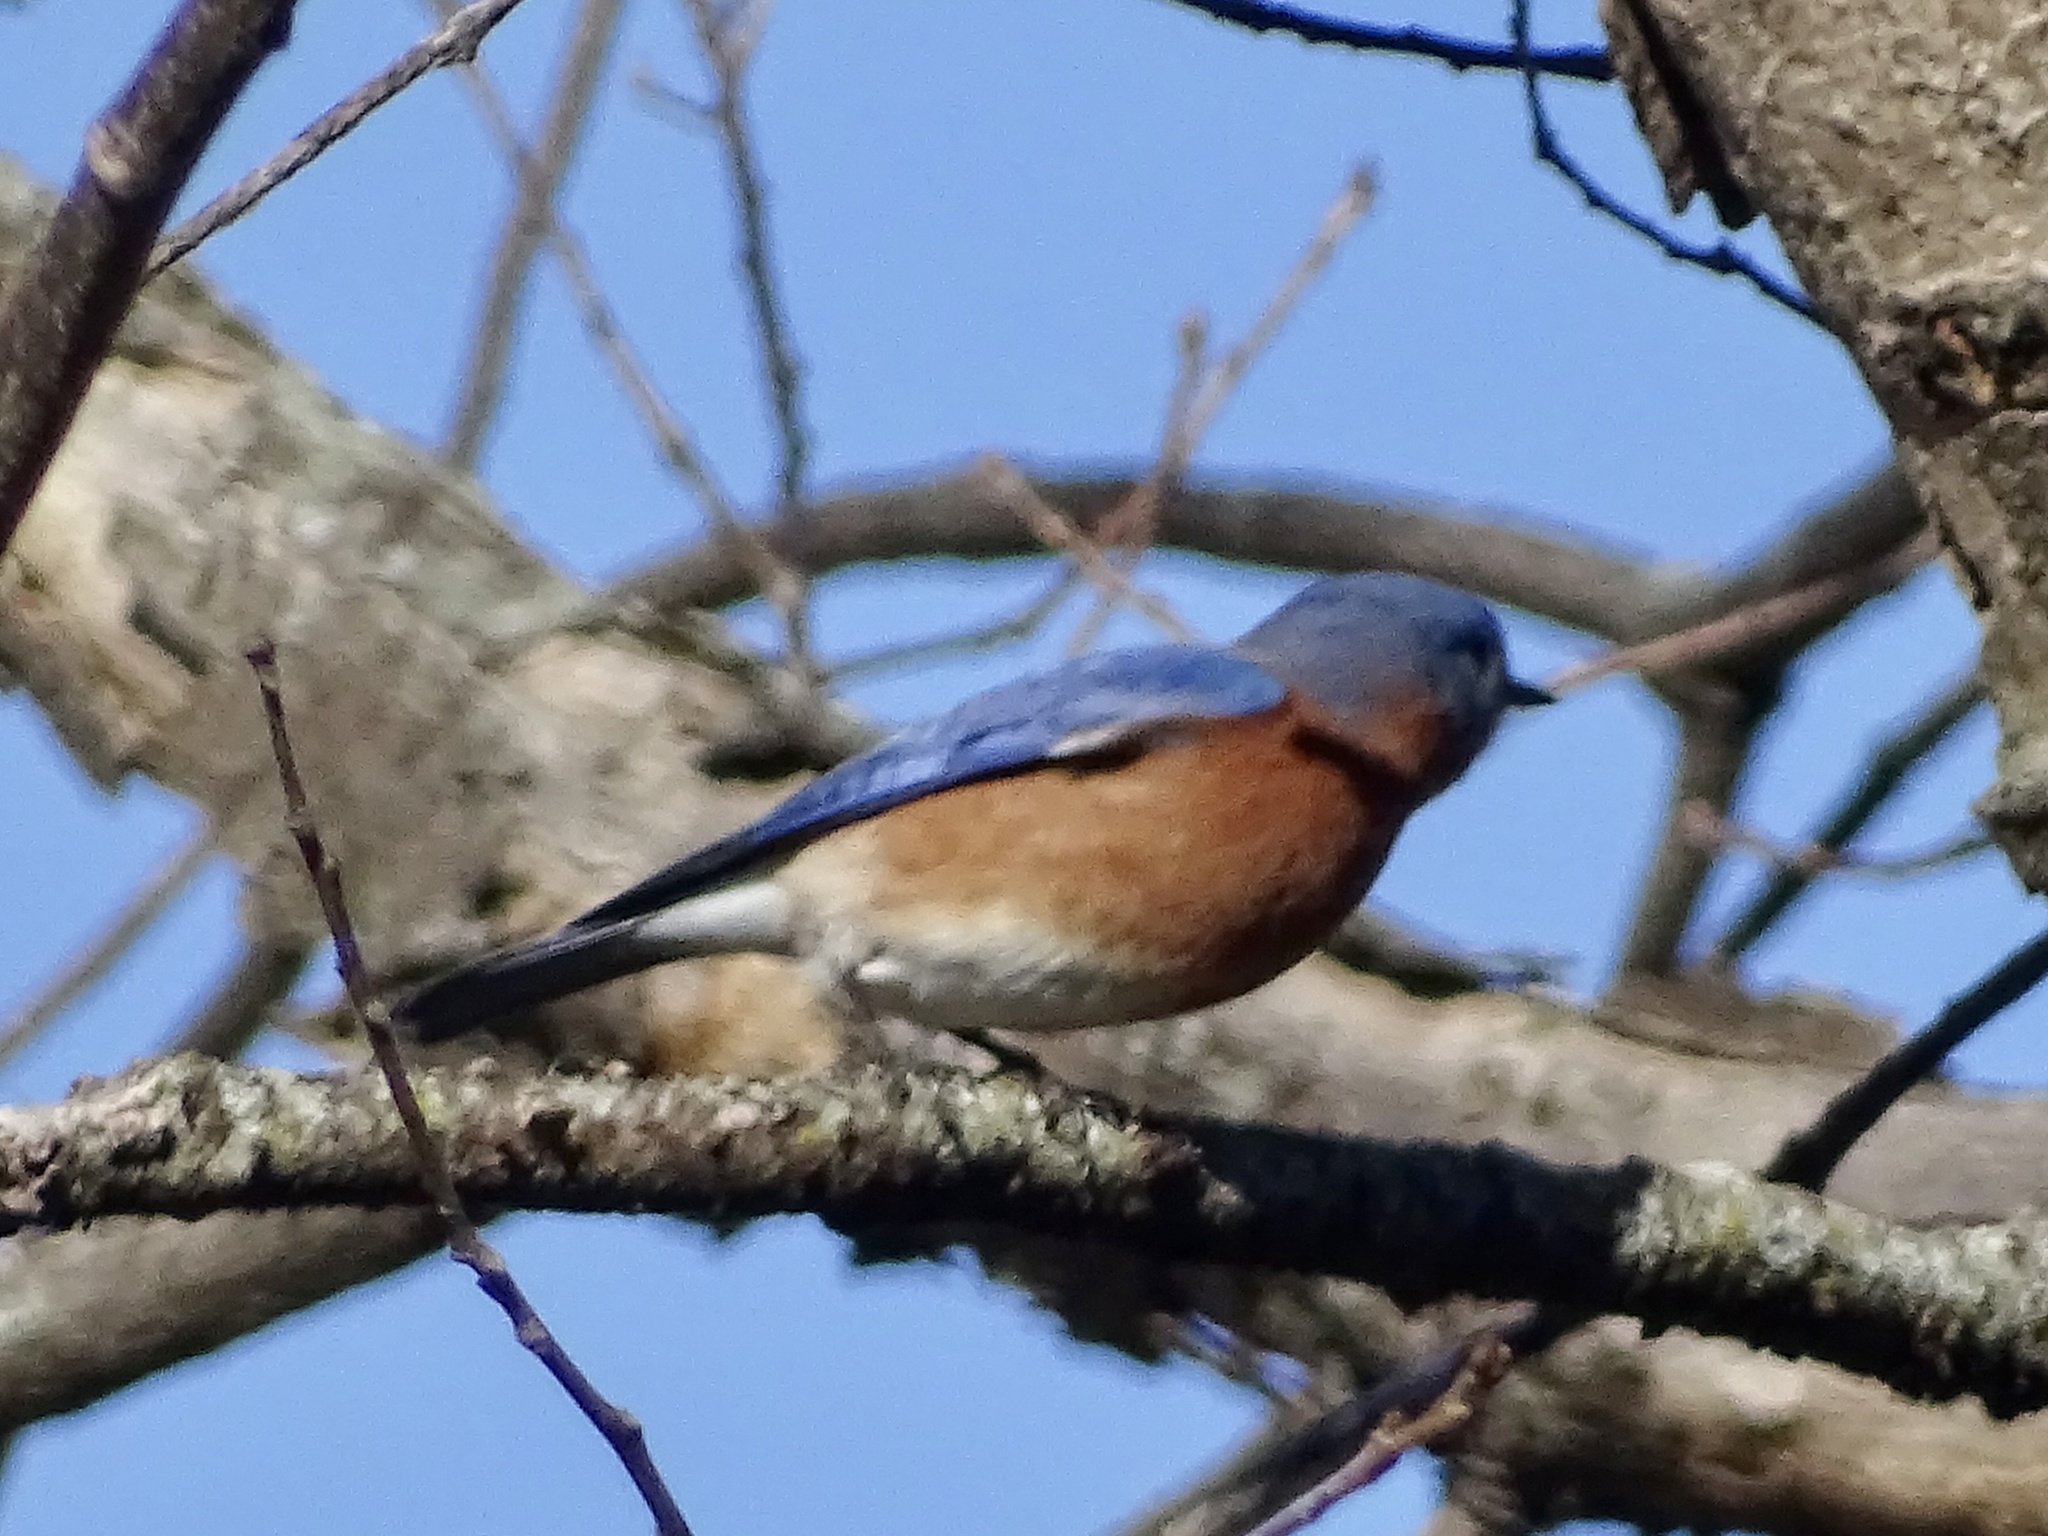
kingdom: Animalia
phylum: Chordata
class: Aves
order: Passeriformes
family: Turdidae
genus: Sialia
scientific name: Sialia sialis
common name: Eastern bluebird
